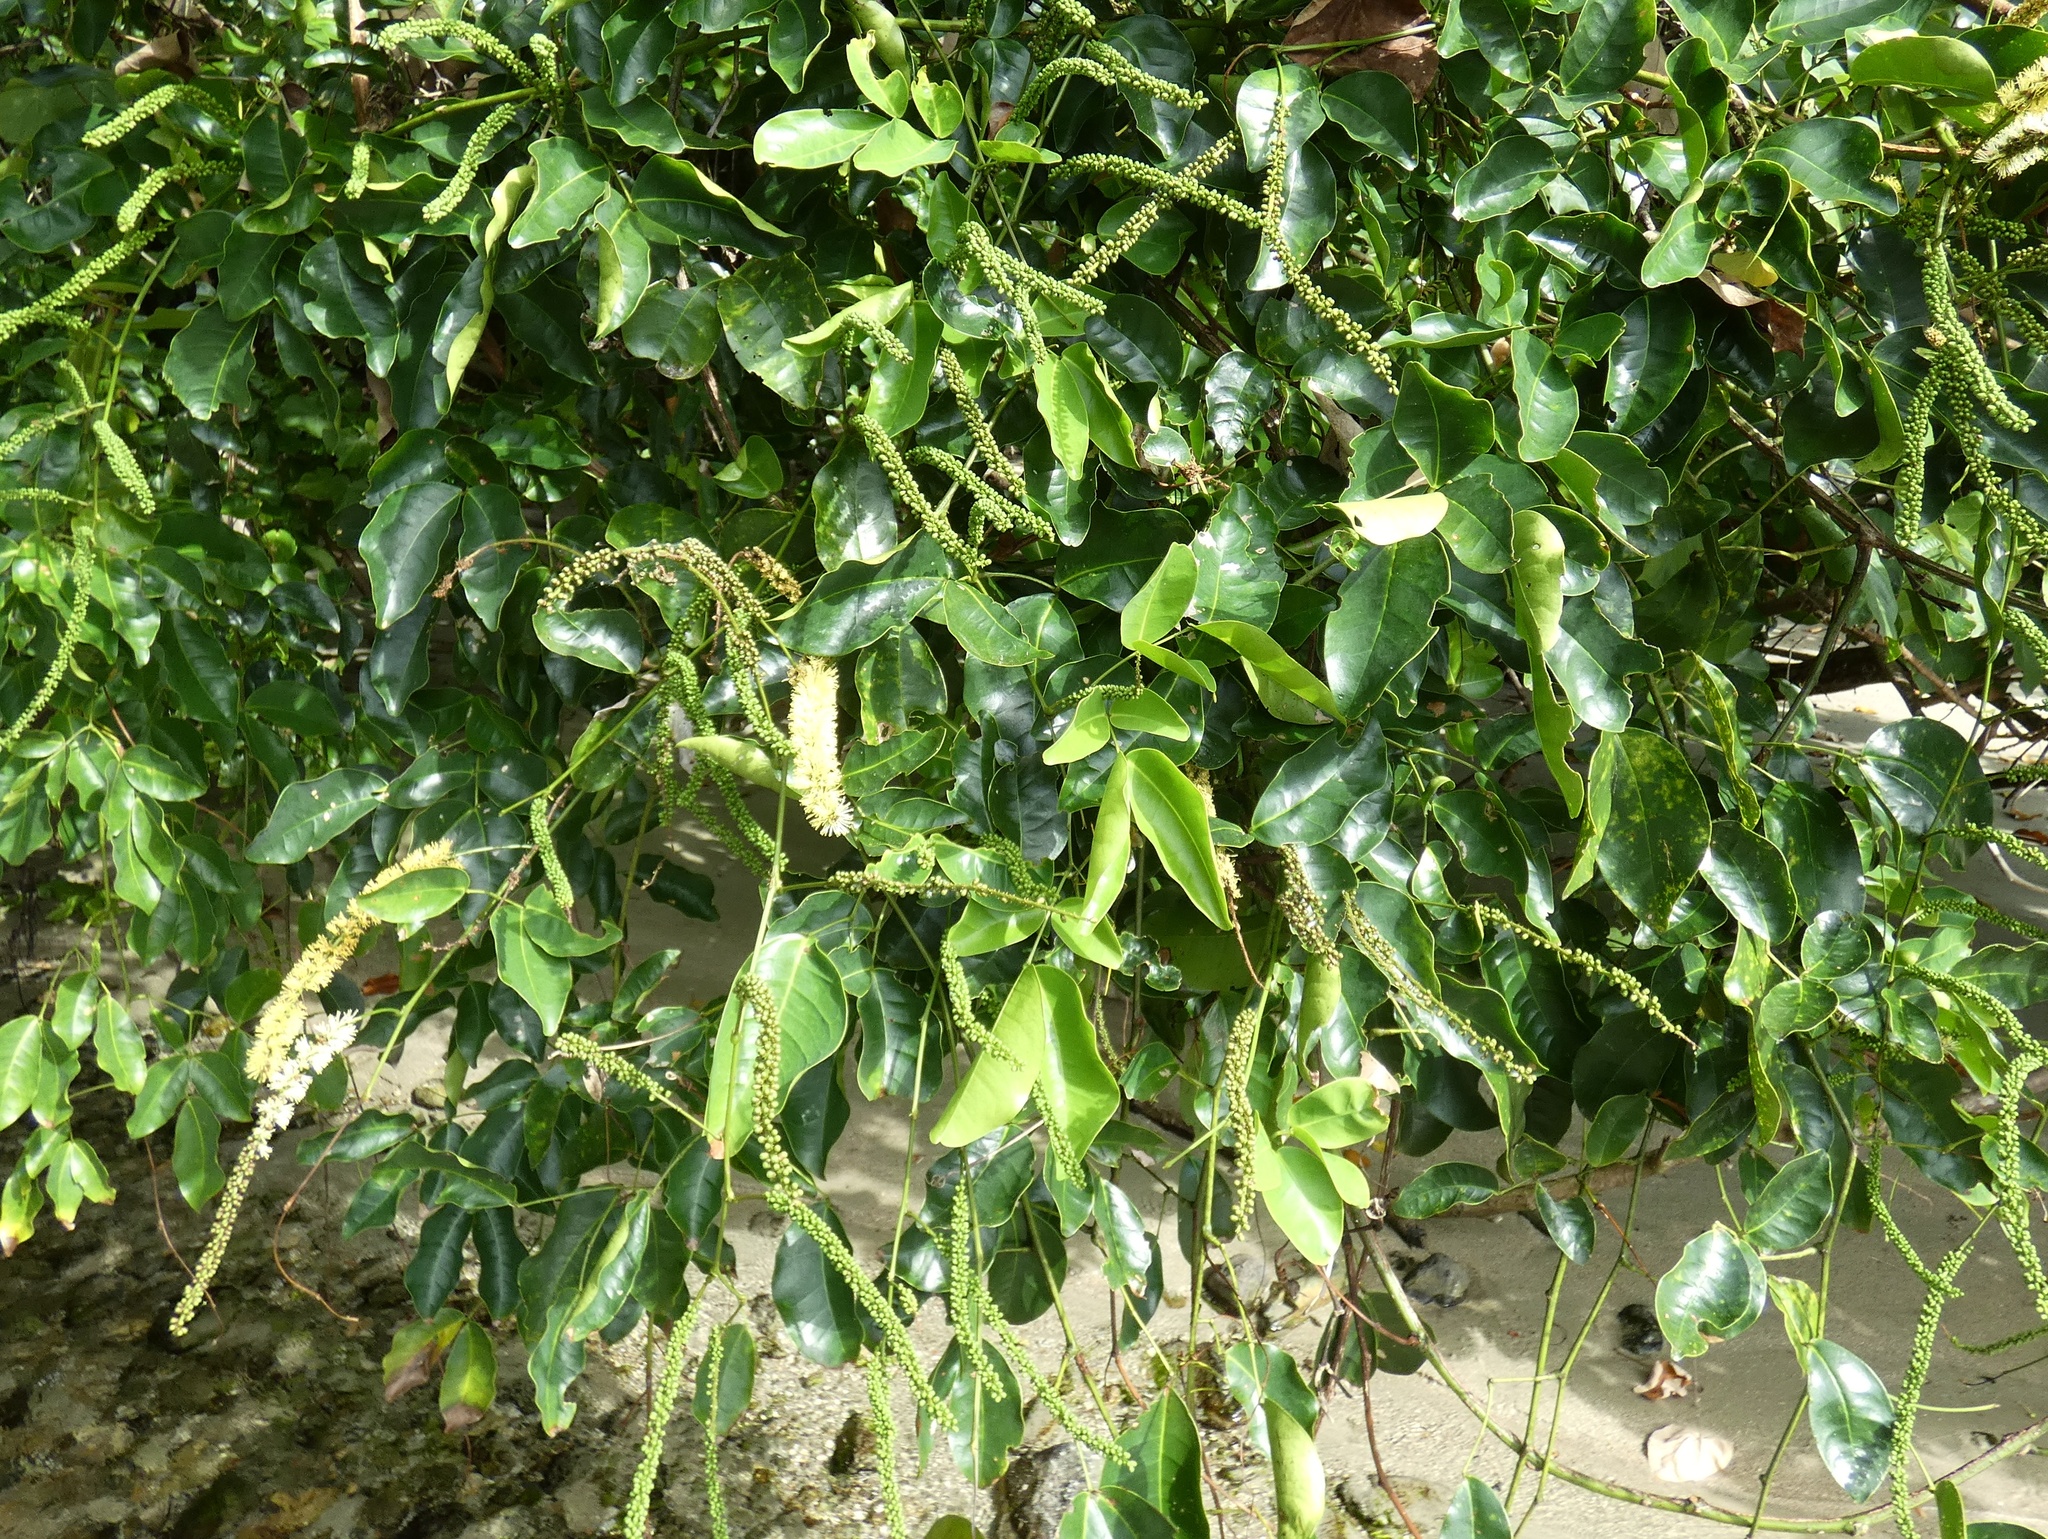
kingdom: Plantae
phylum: Tracheophyta
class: Magnoliopsida
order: Fabales
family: Fabaceae
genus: Entada
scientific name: Entada phaseoloides
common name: Matchbox-bean
